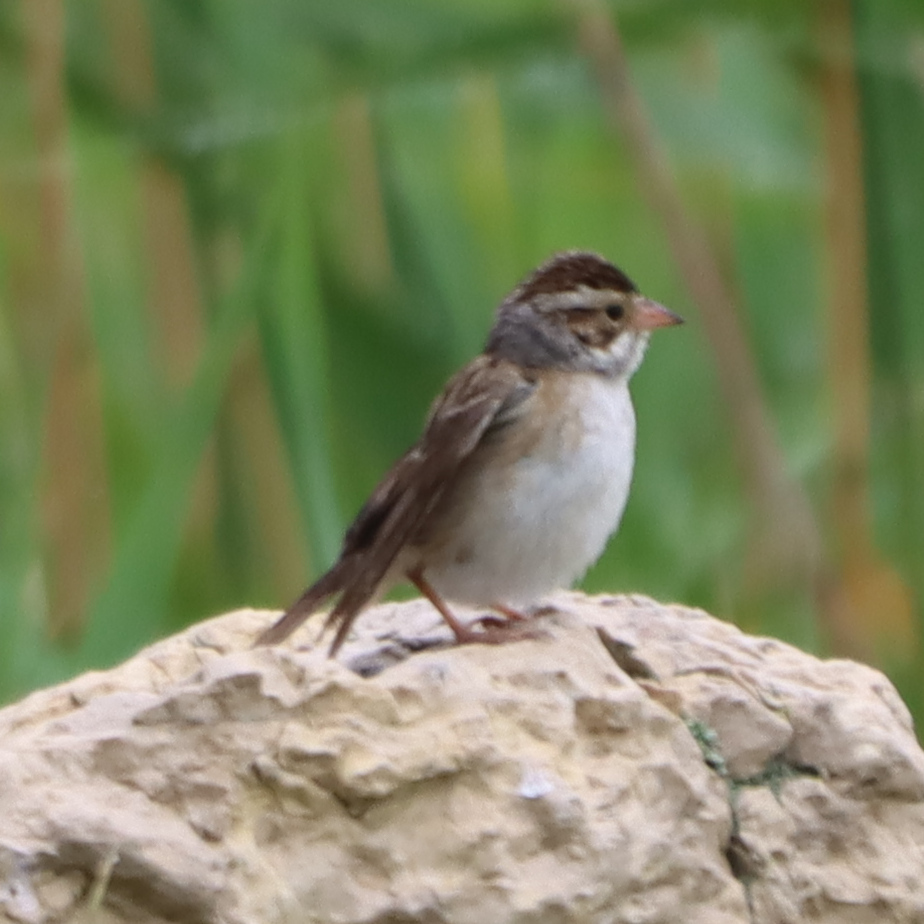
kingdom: Animalia
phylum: Chordata
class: Aves
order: Passeriformes
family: Passerellidae
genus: Spizella
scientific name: Spizella pallida
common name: Clay-colored sparrow
